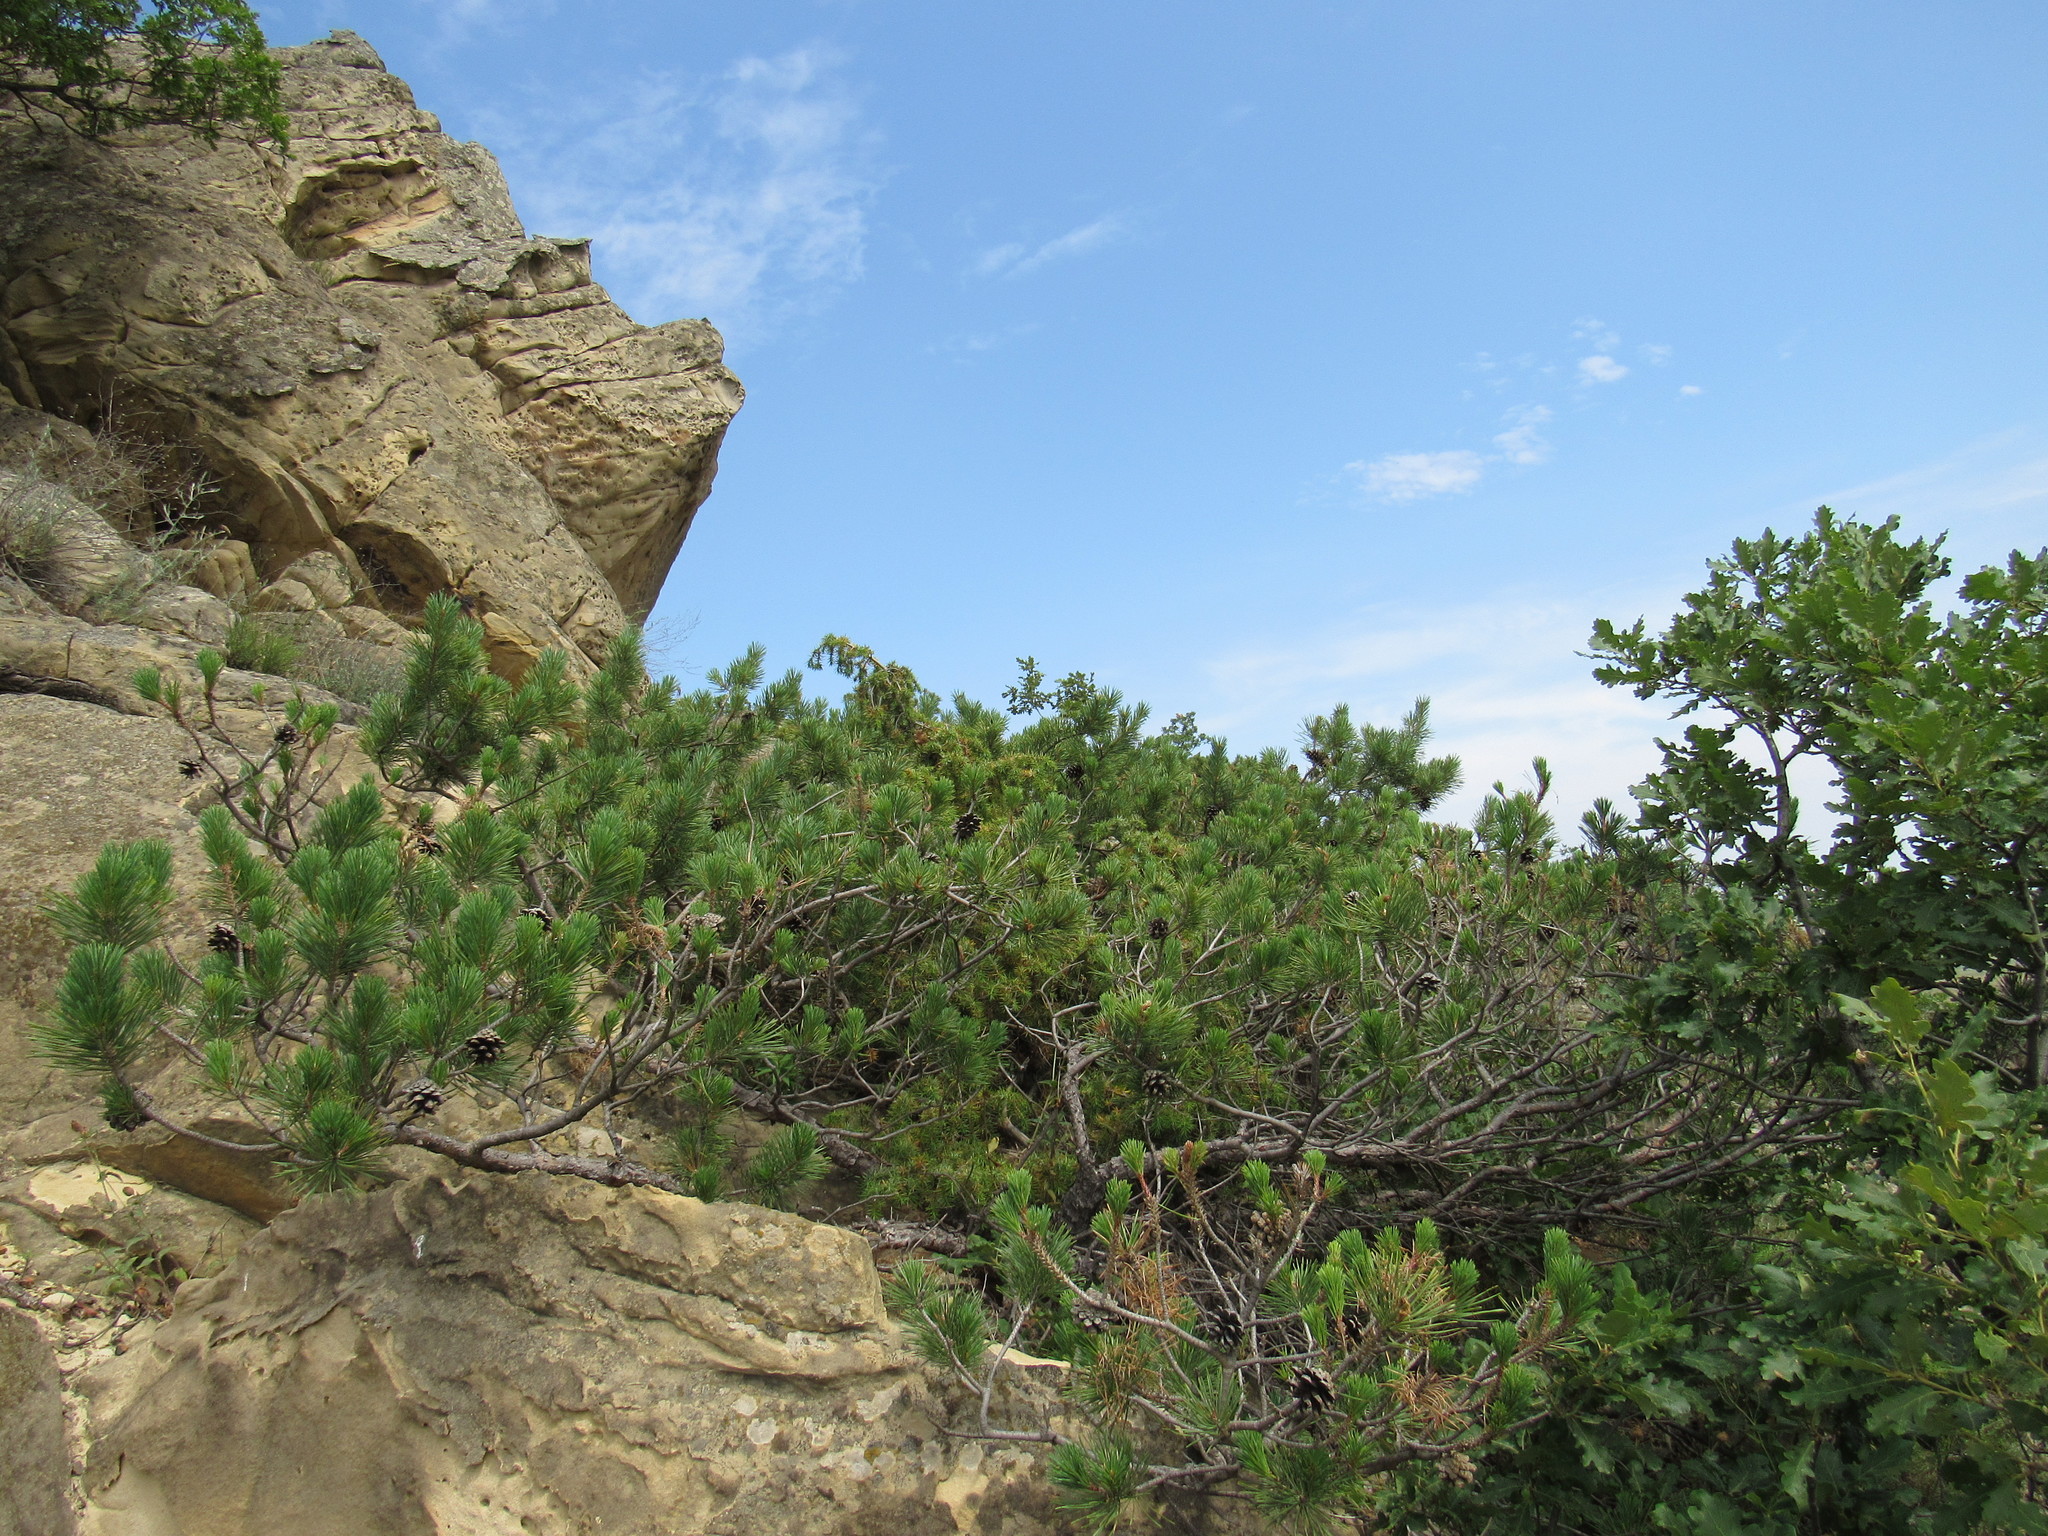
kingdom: Plantae
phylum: Tracheophyta
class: Pinopsida
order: Pinales
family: Pinaceae
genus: Pinus
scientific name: Pinus sylvestris
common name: Scots pine
